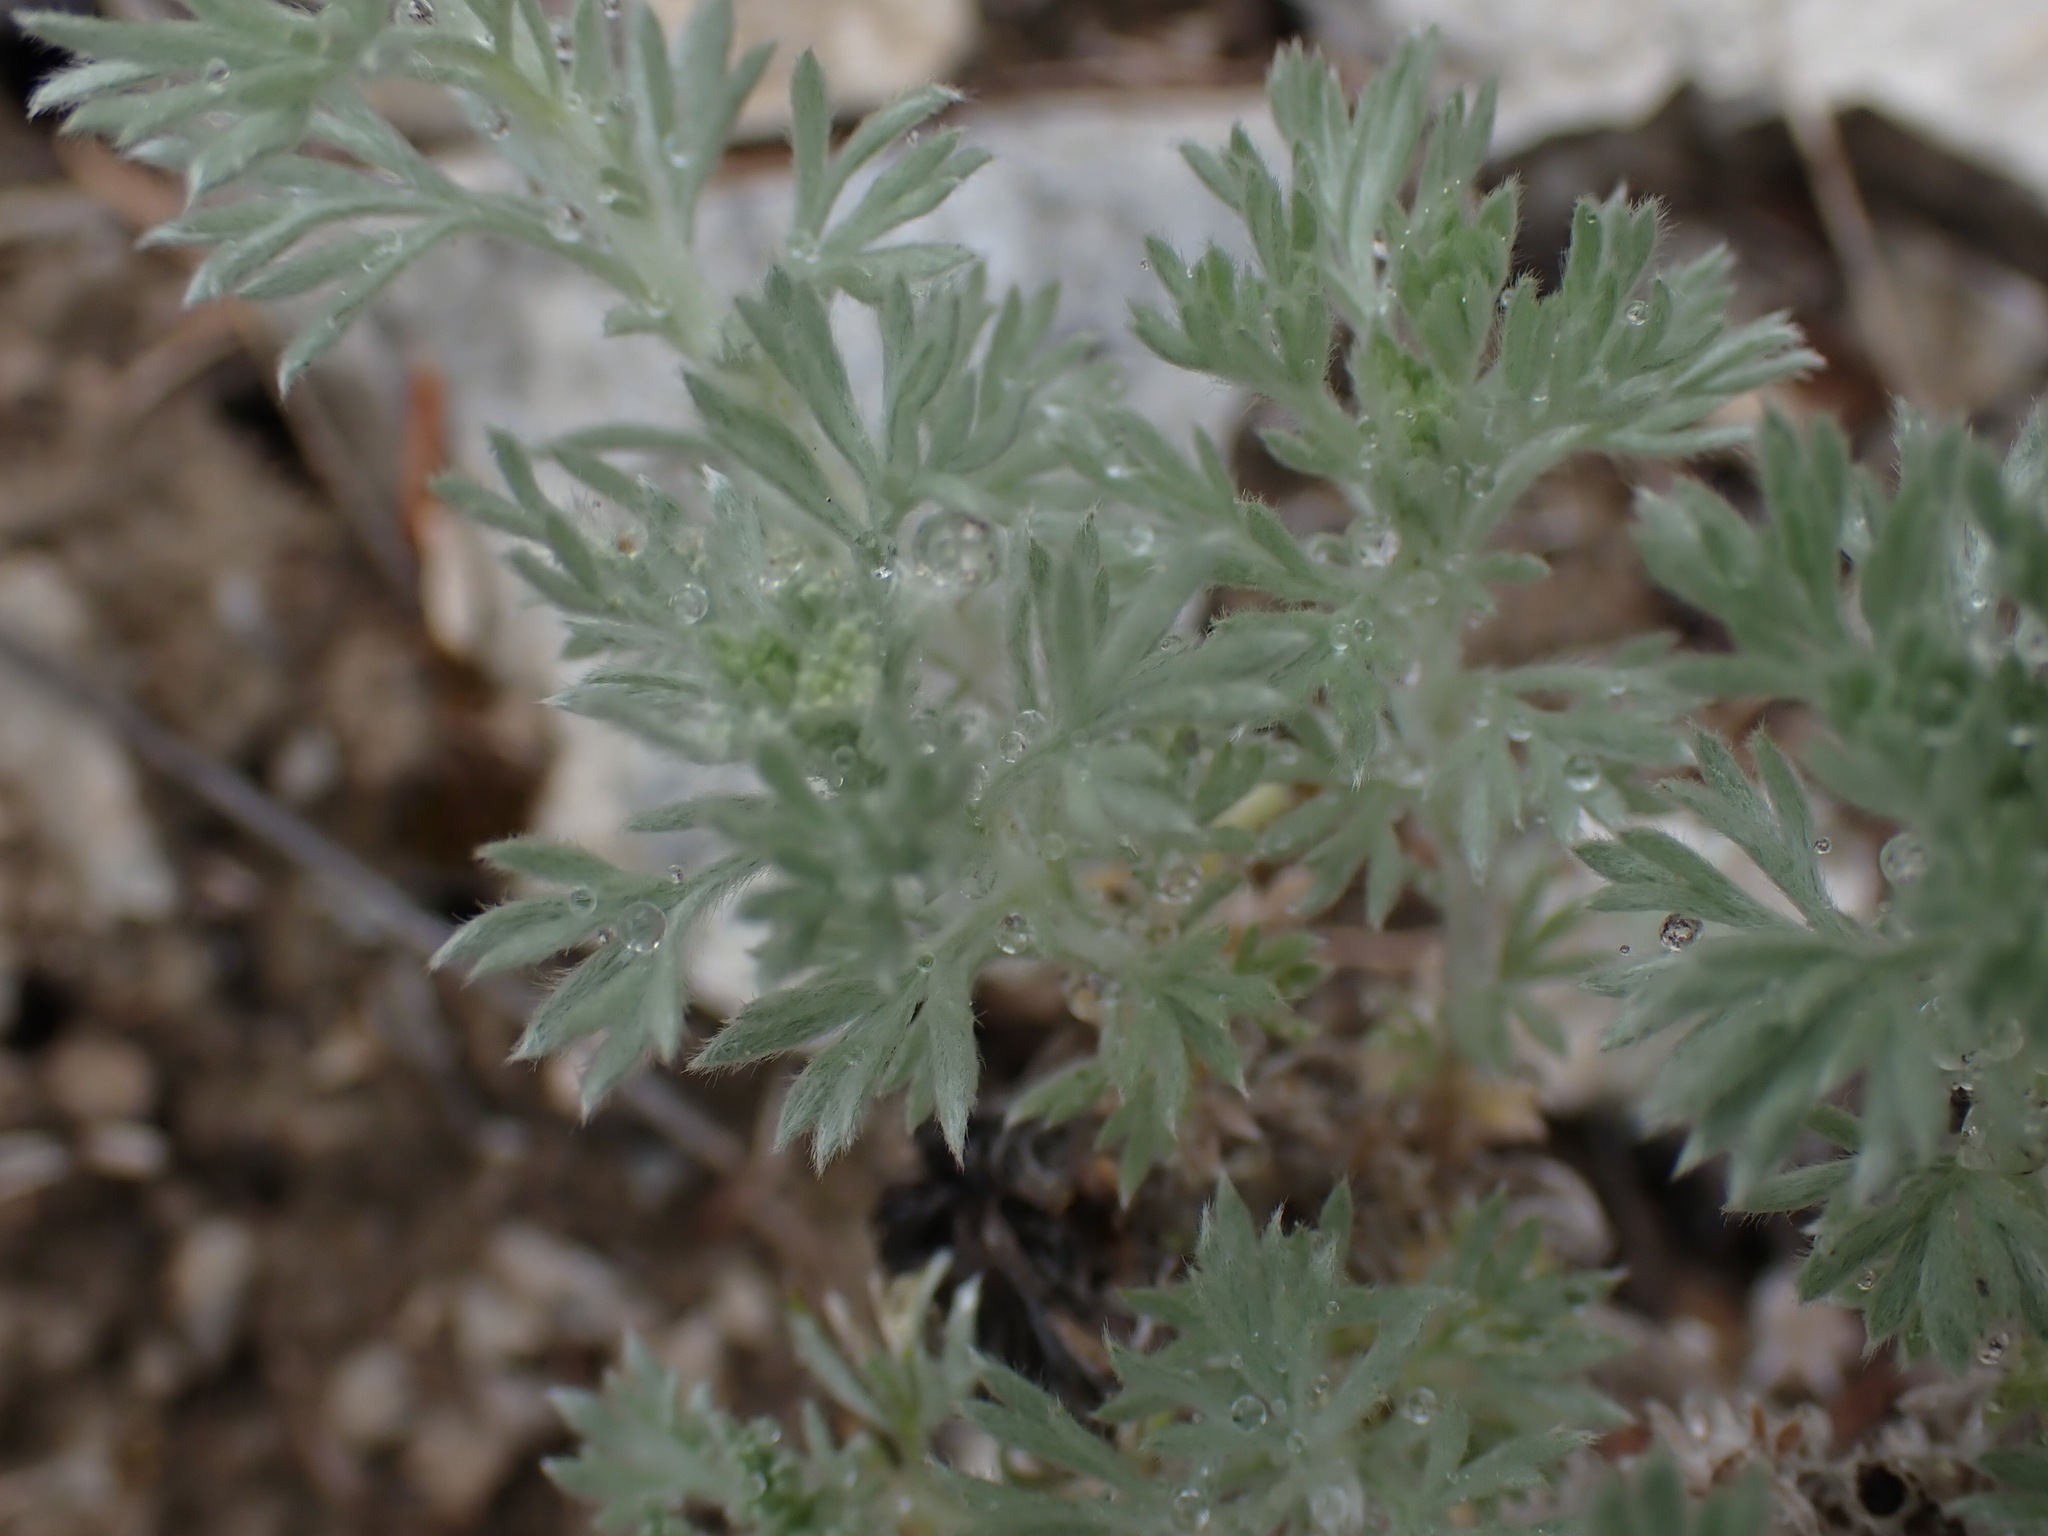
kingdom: Plantae
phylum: Tracheophyta
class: Magnoliopsida
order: Asterales
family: Asteraceae
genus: Artemisia
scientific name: Artemisia frigida
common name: Prairie sagewort
